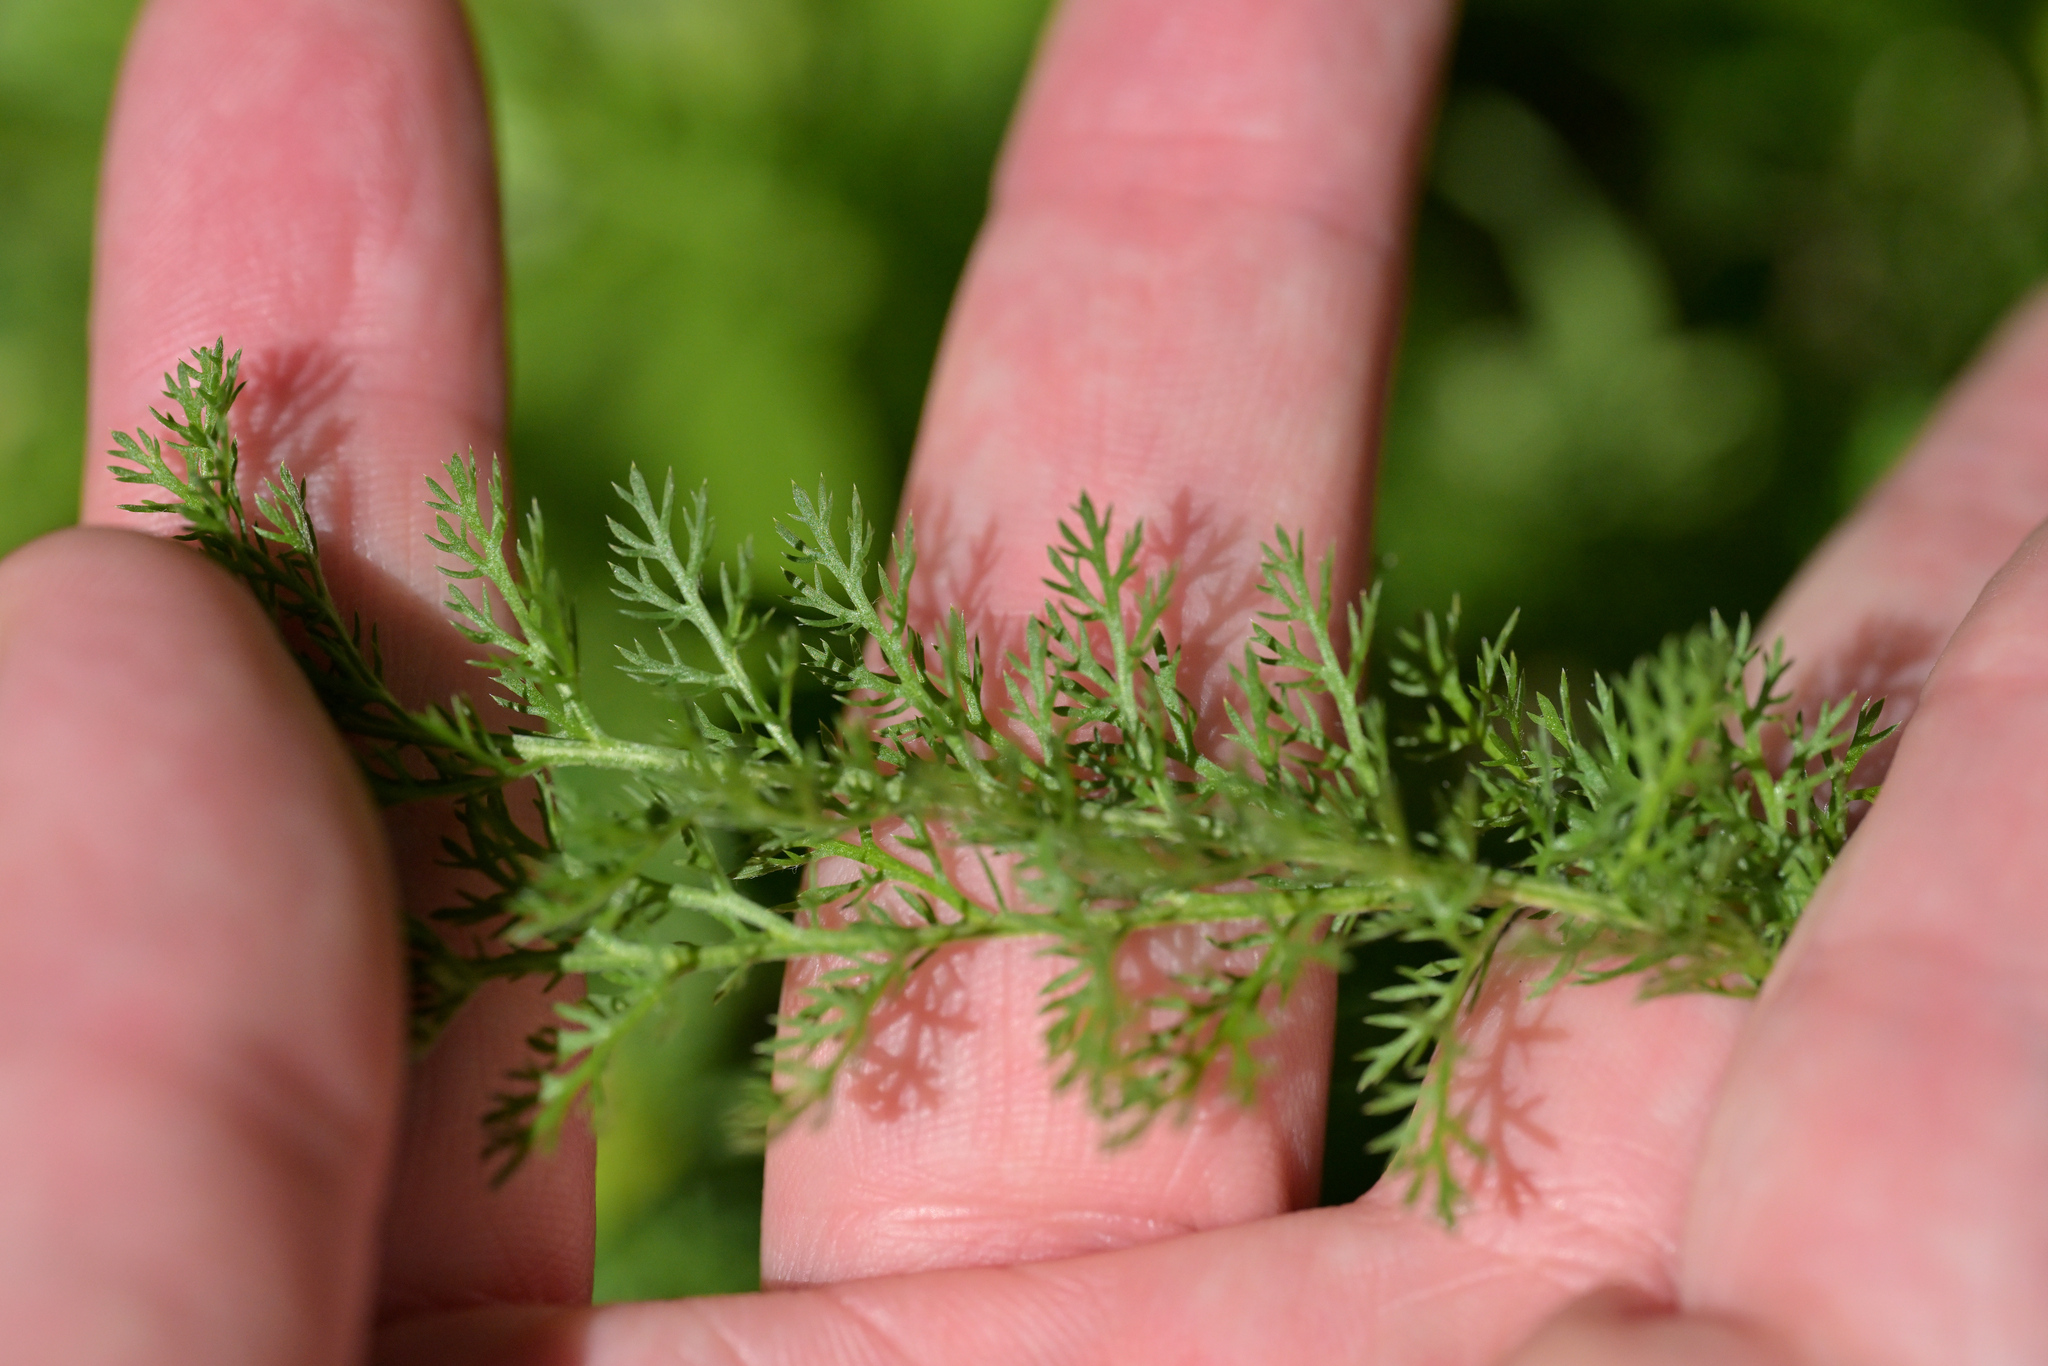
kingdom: Plantae
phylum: Tracheophyta
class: Magnoliopsida
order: Asterales
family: Asteraceae
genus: Achillea
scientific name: Achillea millefolium
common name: Yarrow
